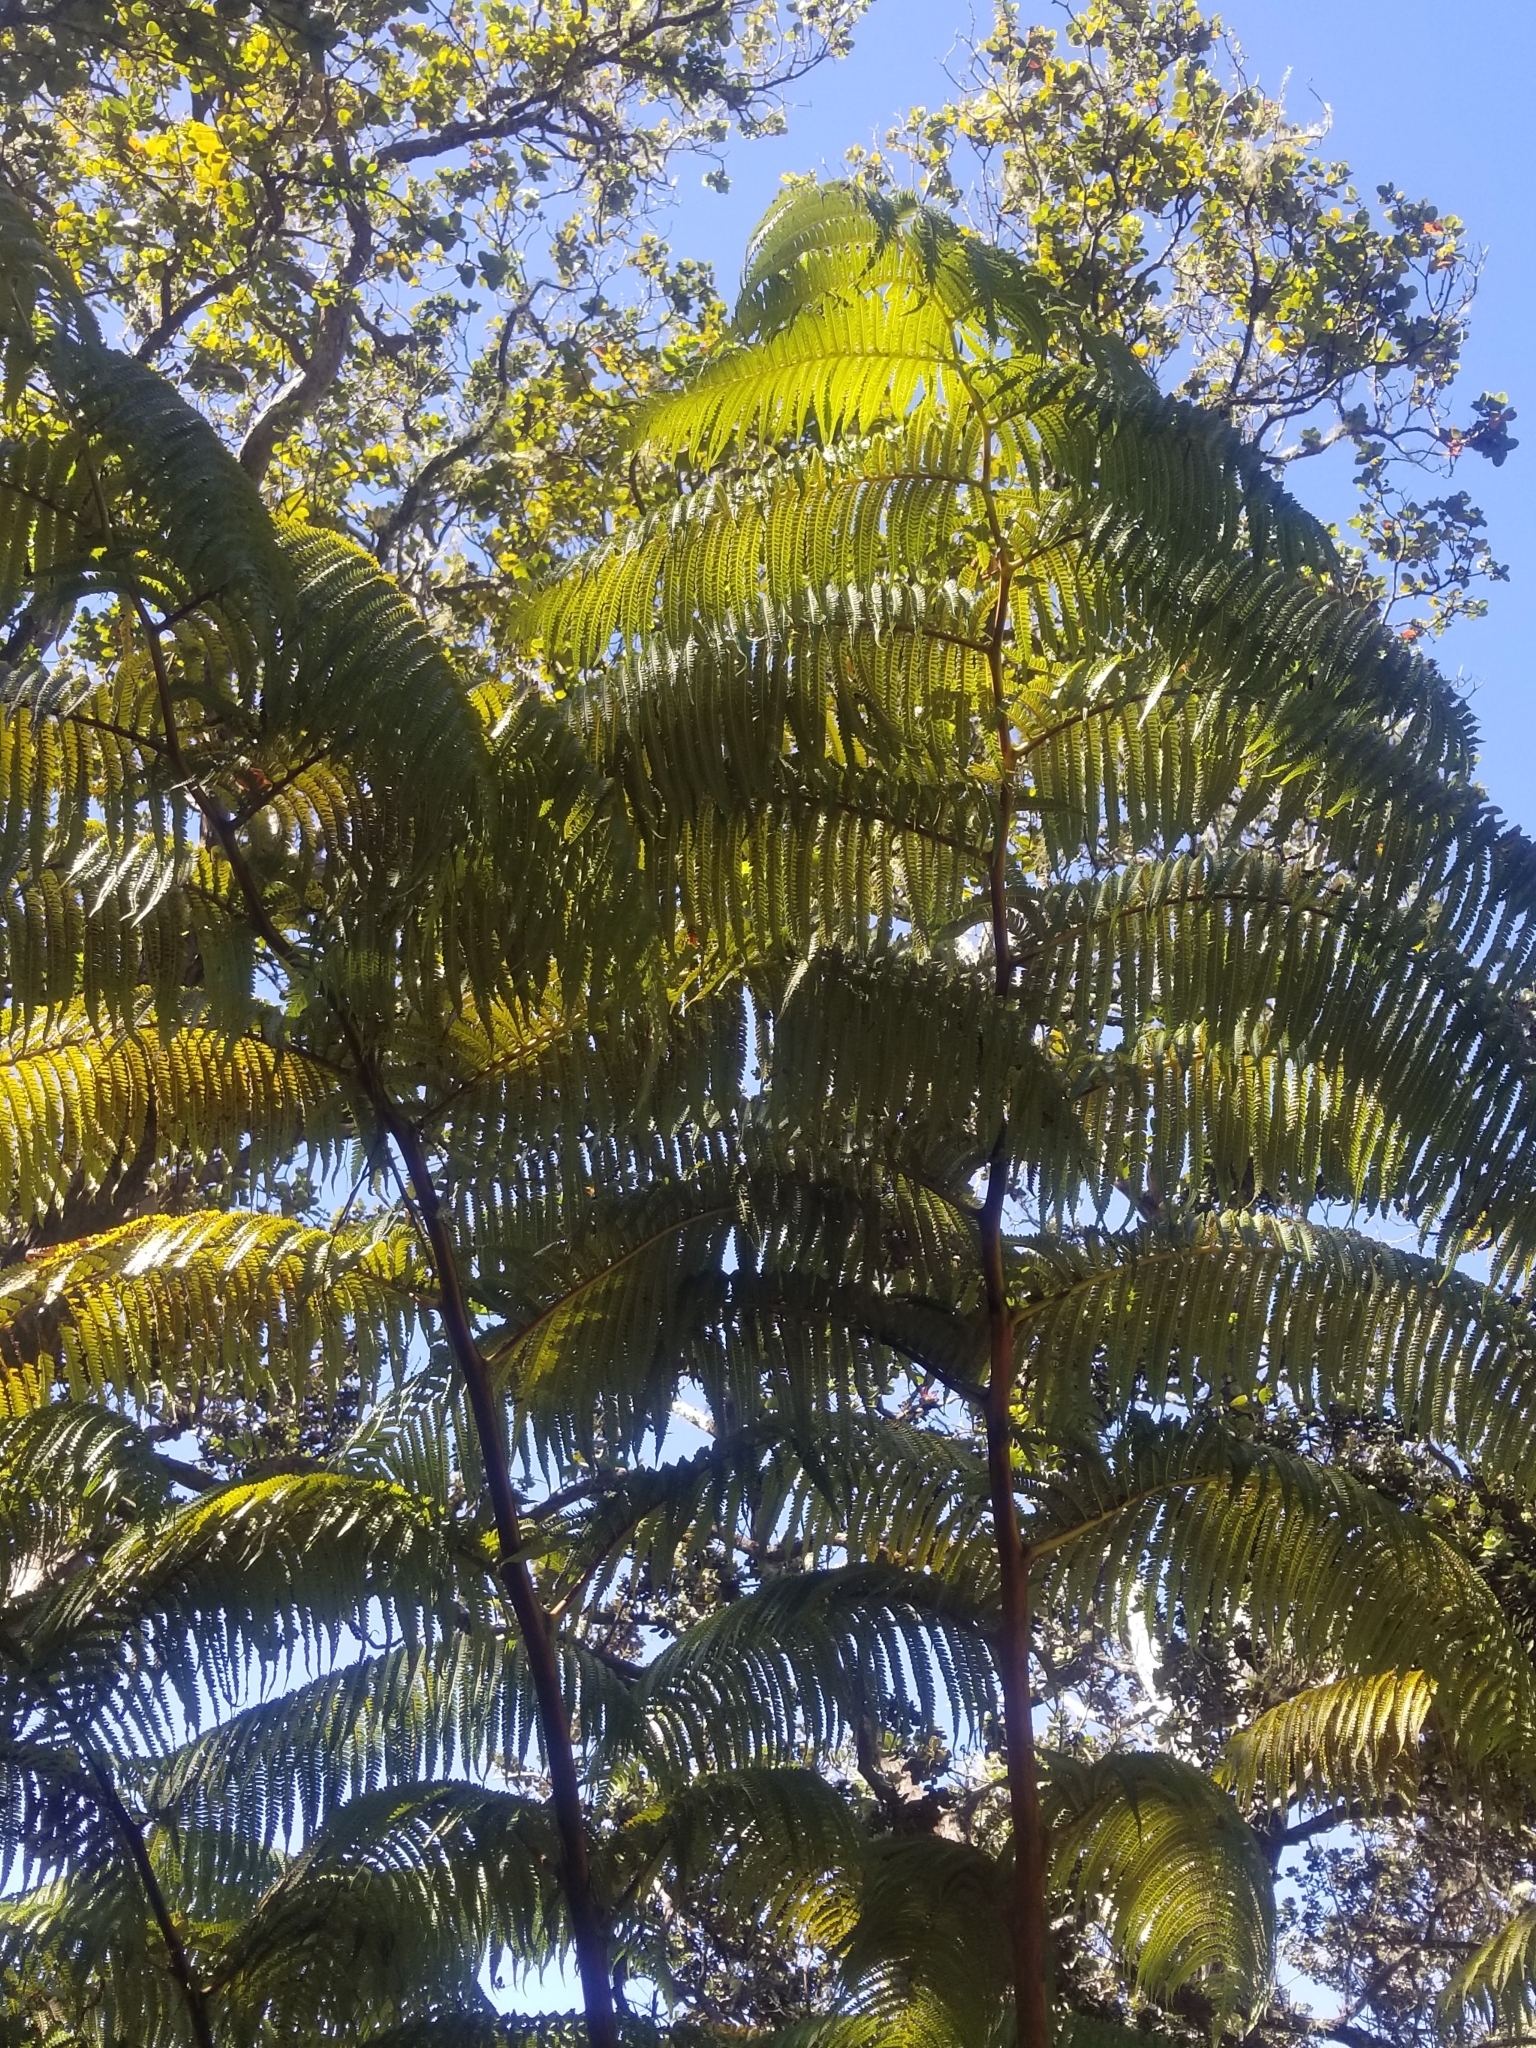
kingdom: Plantae
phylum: Tracheophyta
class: Polypodiopsida
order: Cyatheales
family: Cibotiaceae
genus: Cibotium
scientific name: Cibotium glaucum
